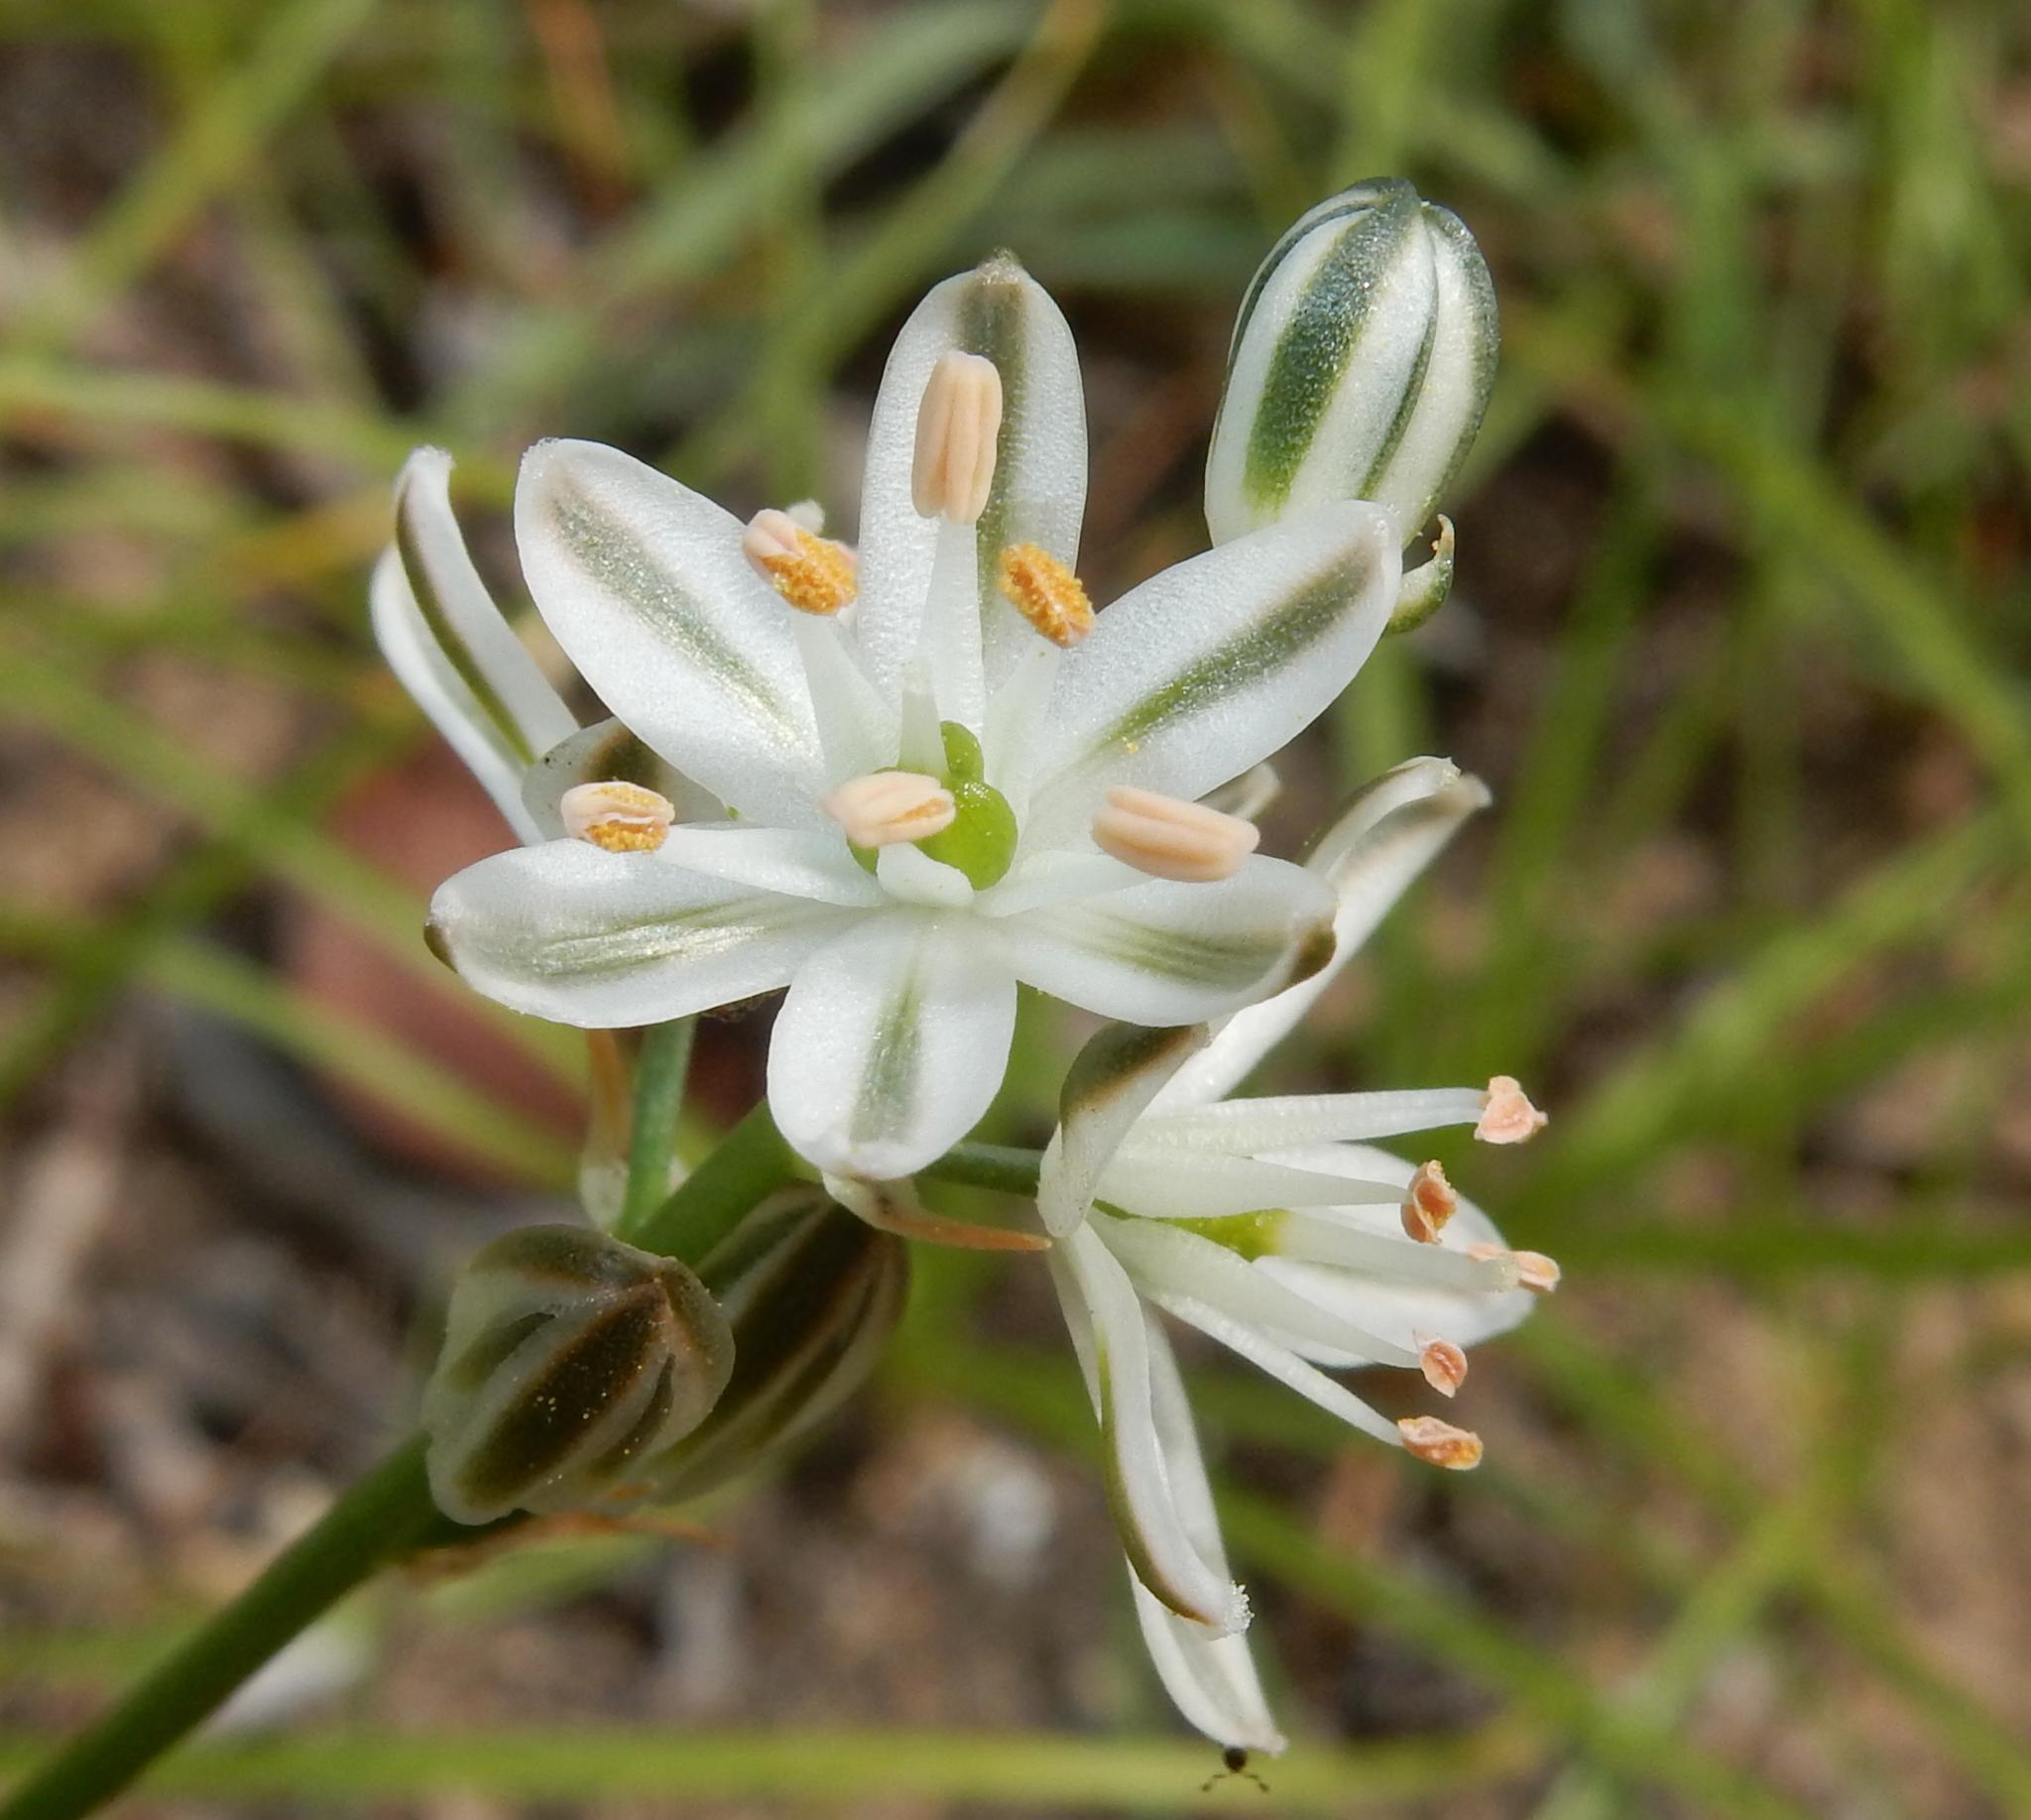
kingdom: Plantae
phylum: Tracheophyta
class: Liliopsida
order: Asparagales
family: Asparagaceae
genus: Albuca
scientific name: Albuca virens
